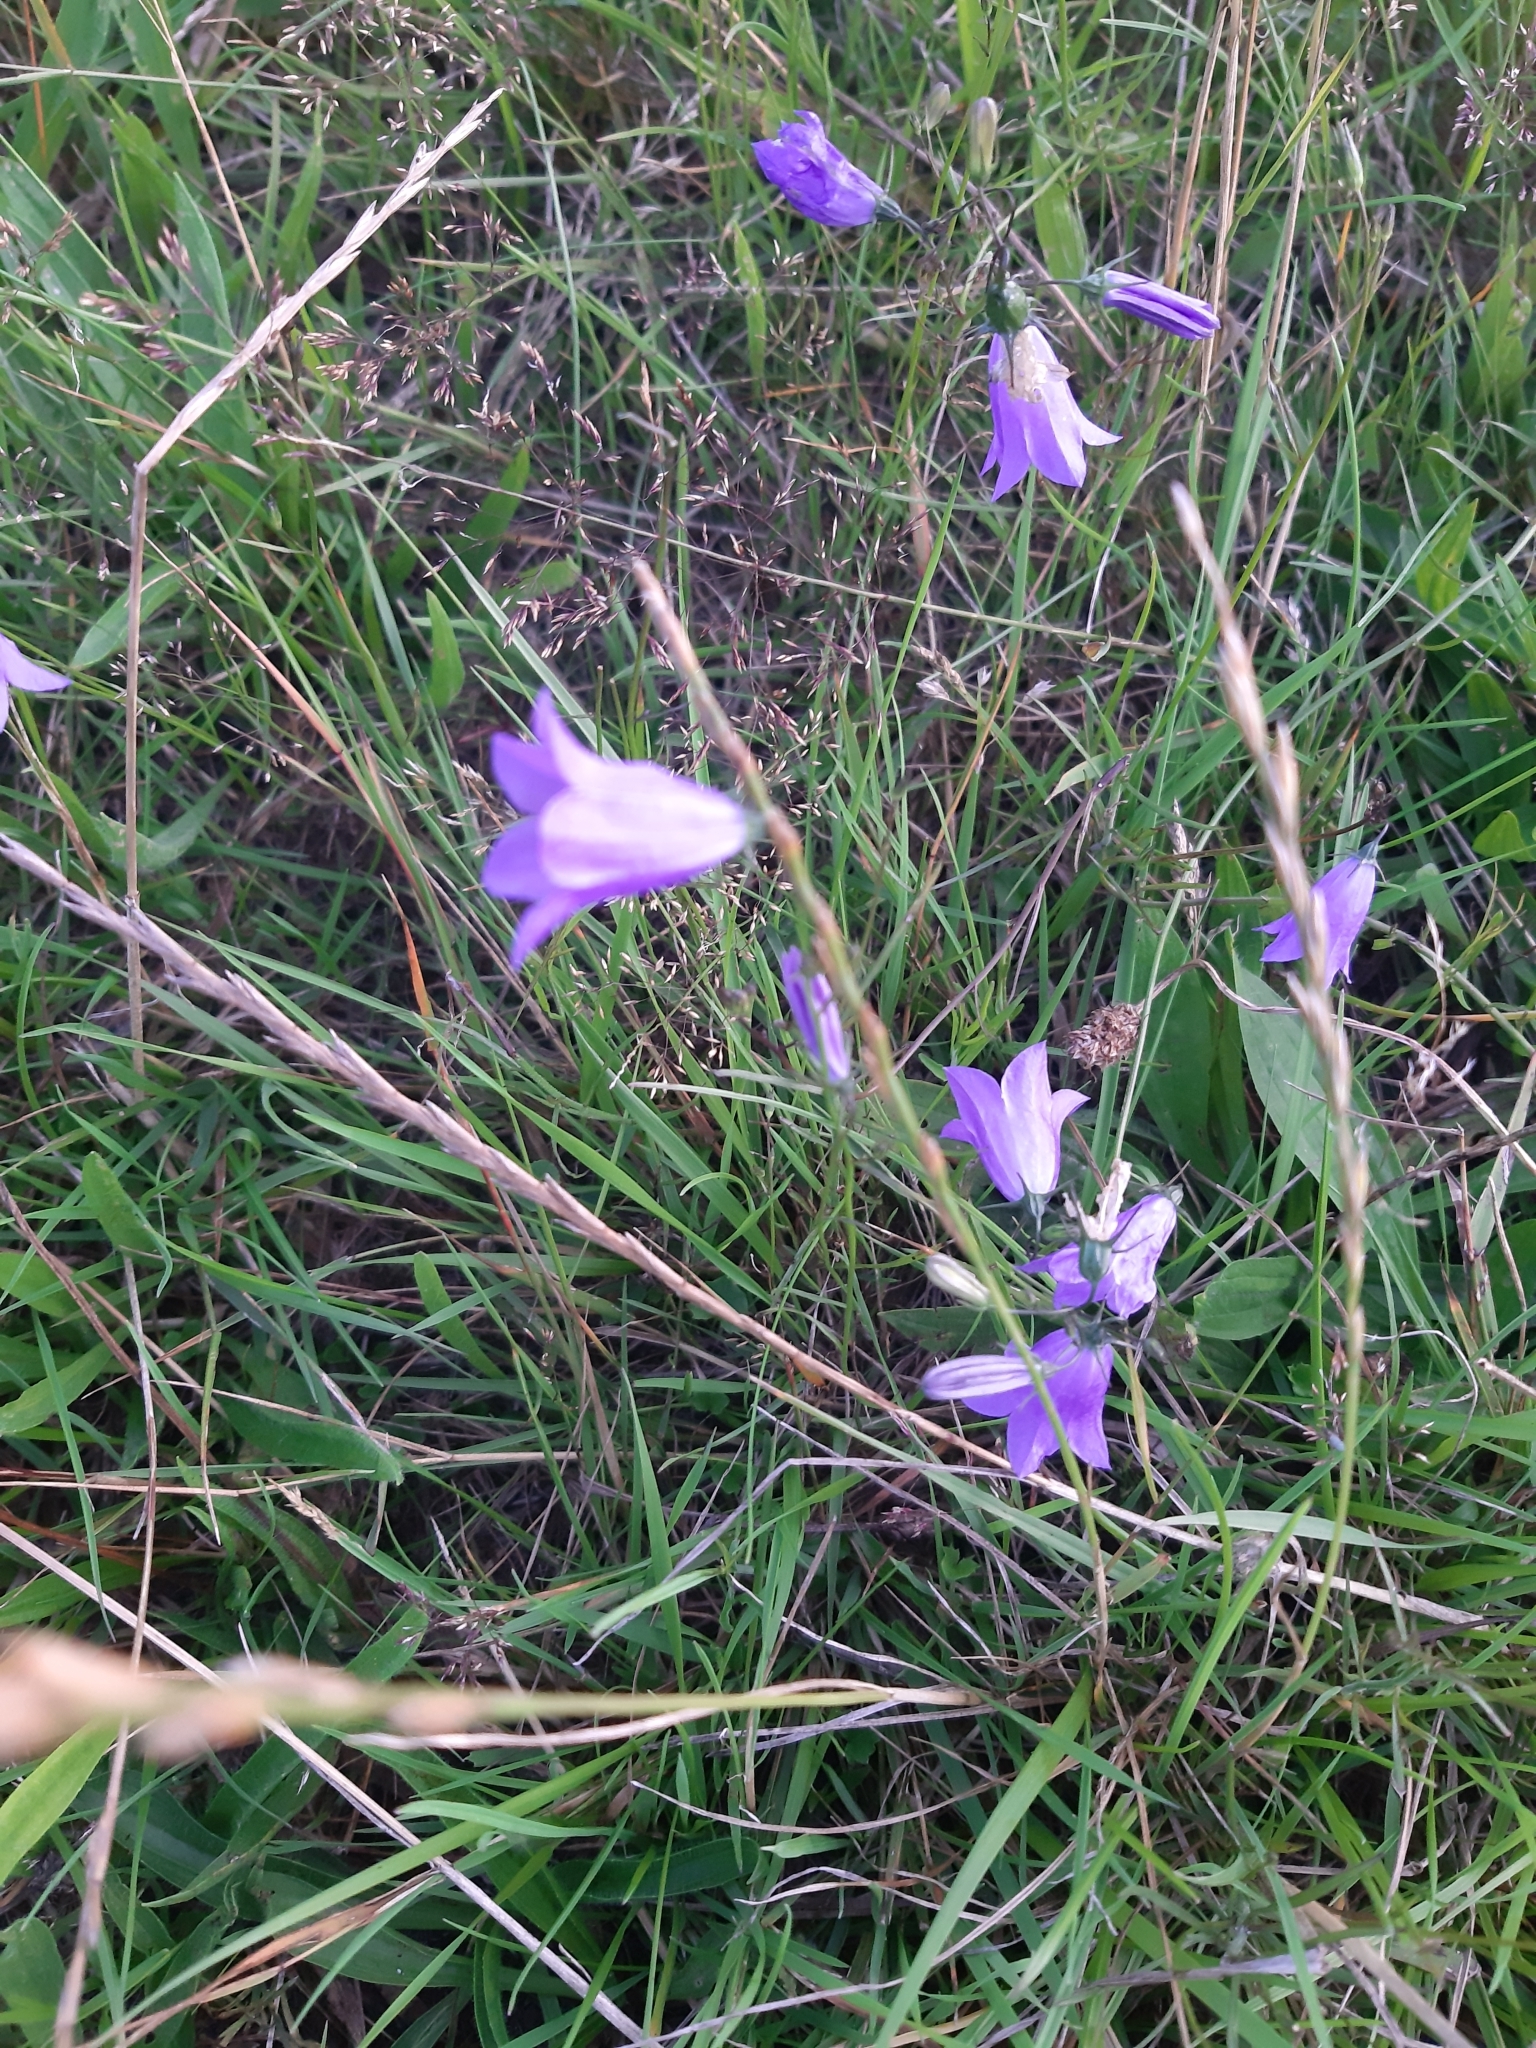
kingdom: Plantae
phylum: Tracheophyta
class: Magnoliopsida
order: Asterales
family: Campanulaceae
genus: Campanula
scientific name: Campanula rotundifolia
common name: Harebell
